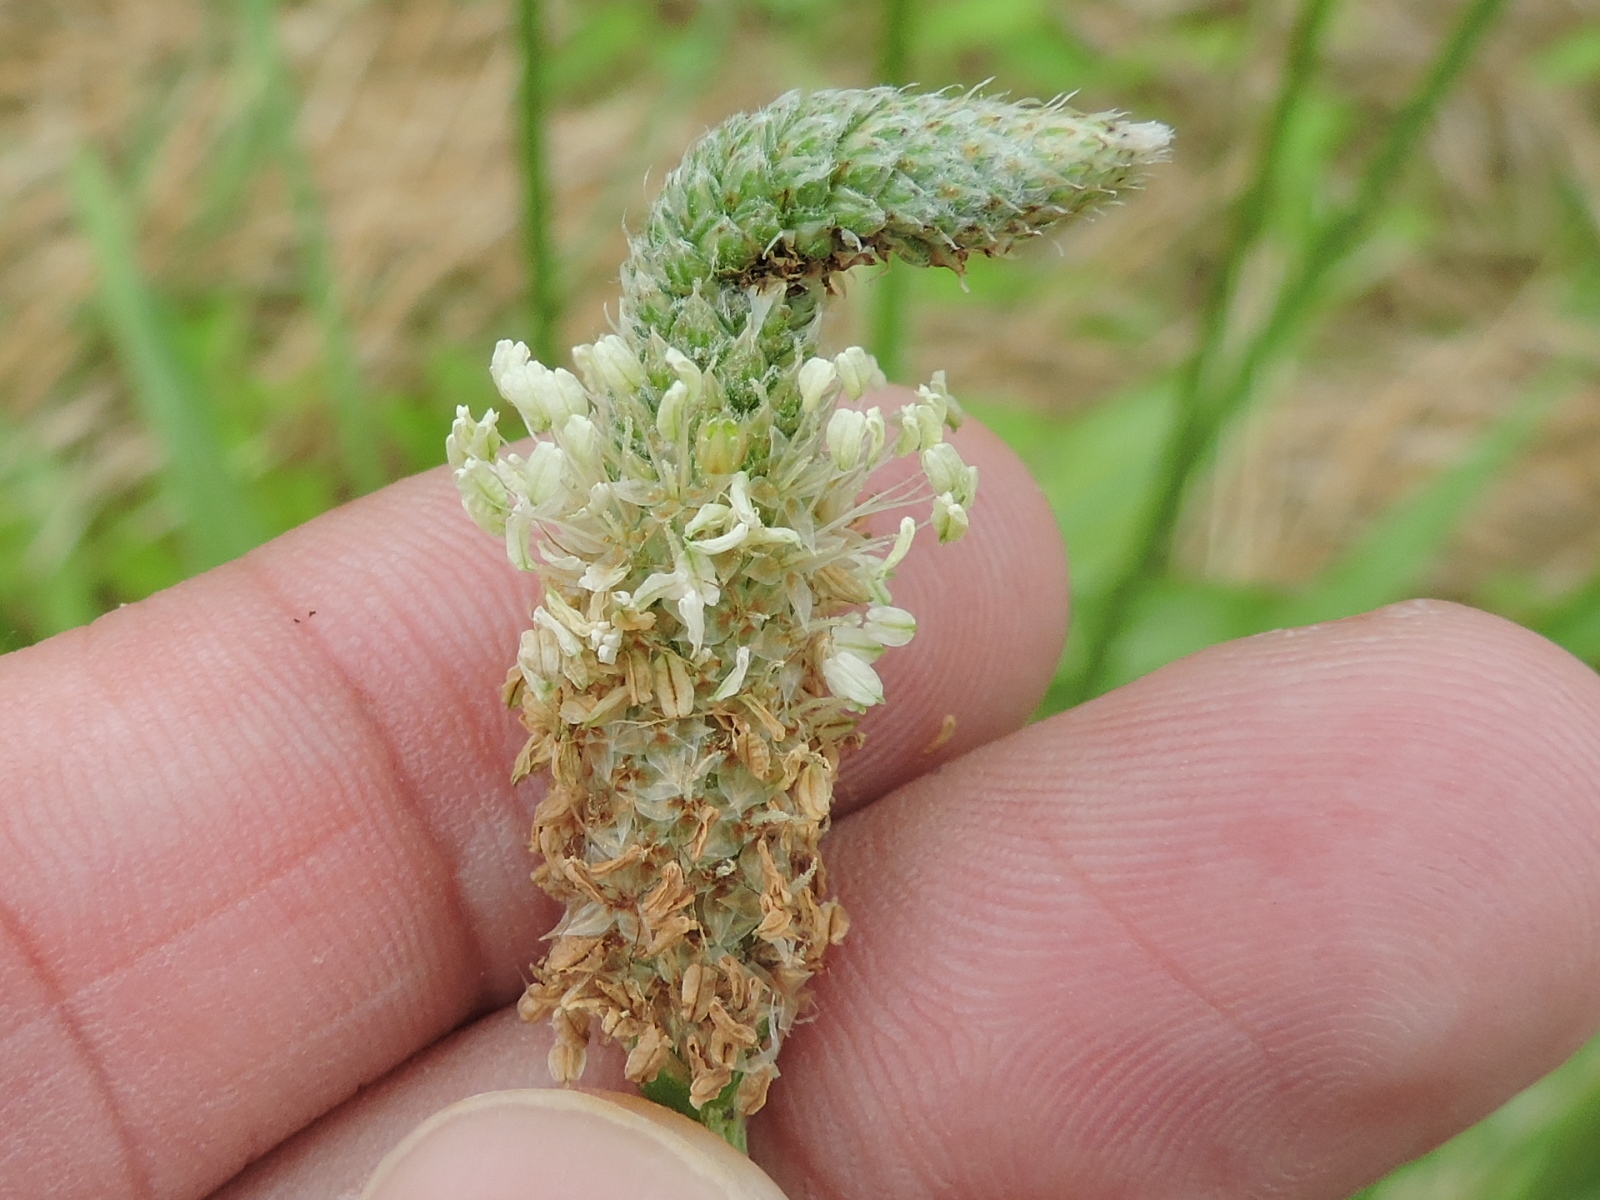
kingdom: Plantae
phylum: Tracheophyta
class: Magnoliopsida
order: Lamiales
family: Plantaginaceae
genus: Plantago
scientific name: Plantago lanceolata
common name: Ribwort plantain
